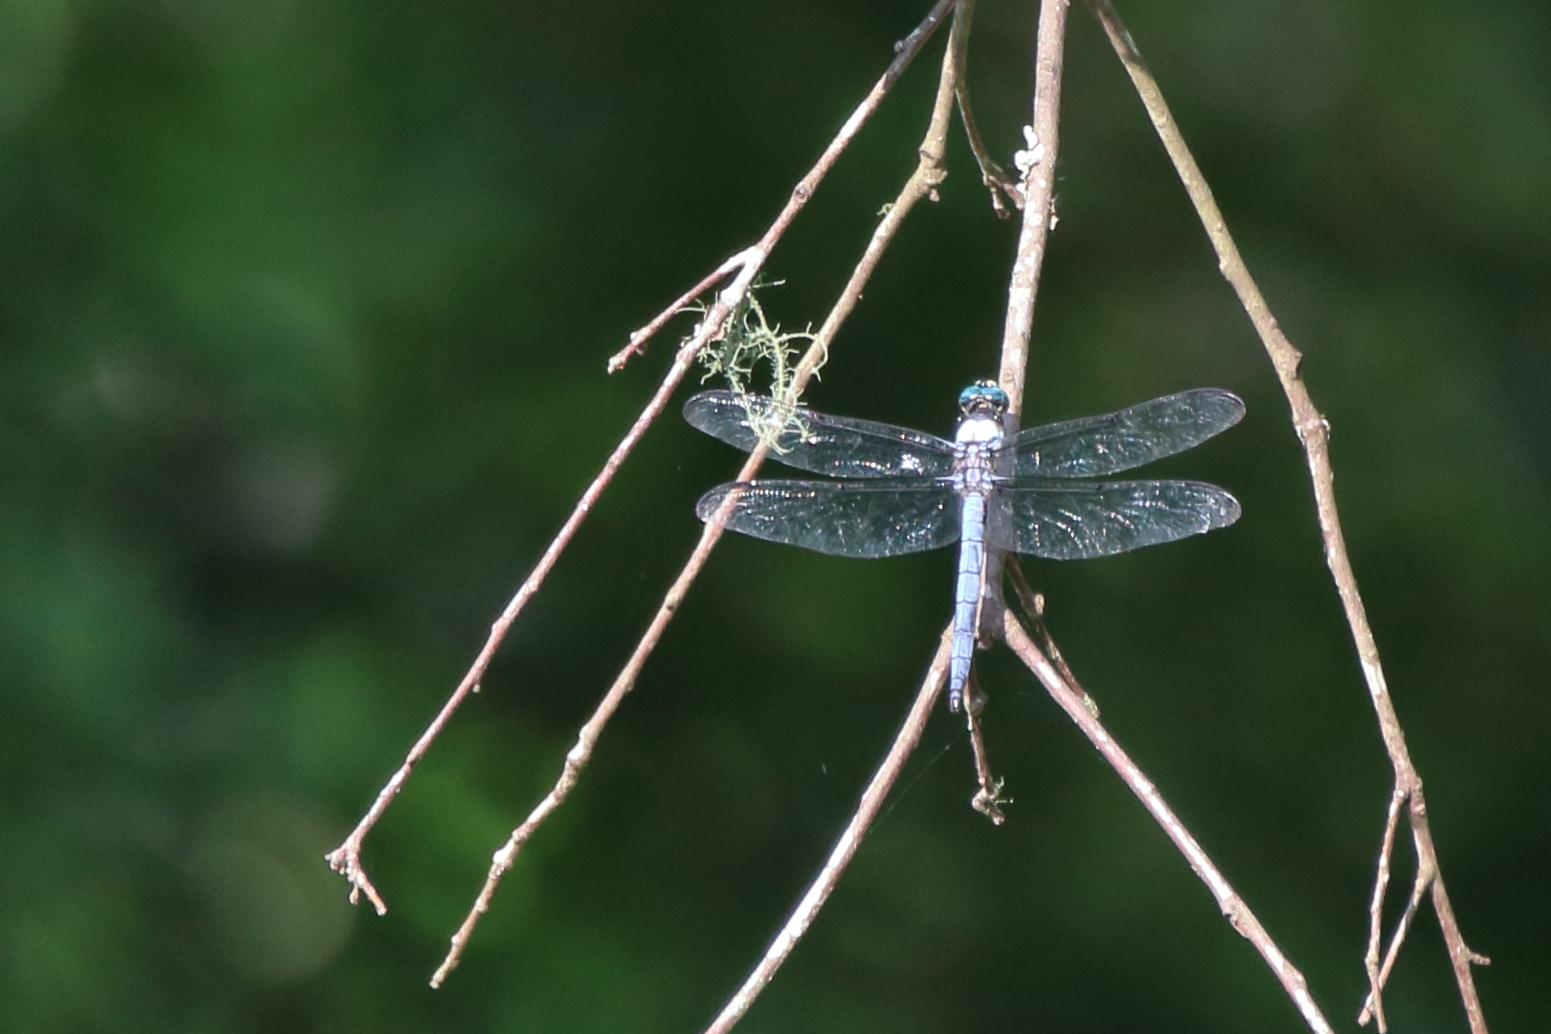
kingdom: Animalia
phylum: Arthropoda
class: Insecta
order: Odonata
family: Libellulidae
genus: Libellula
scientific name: Libellula vibrans
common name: Great blue skimmer
